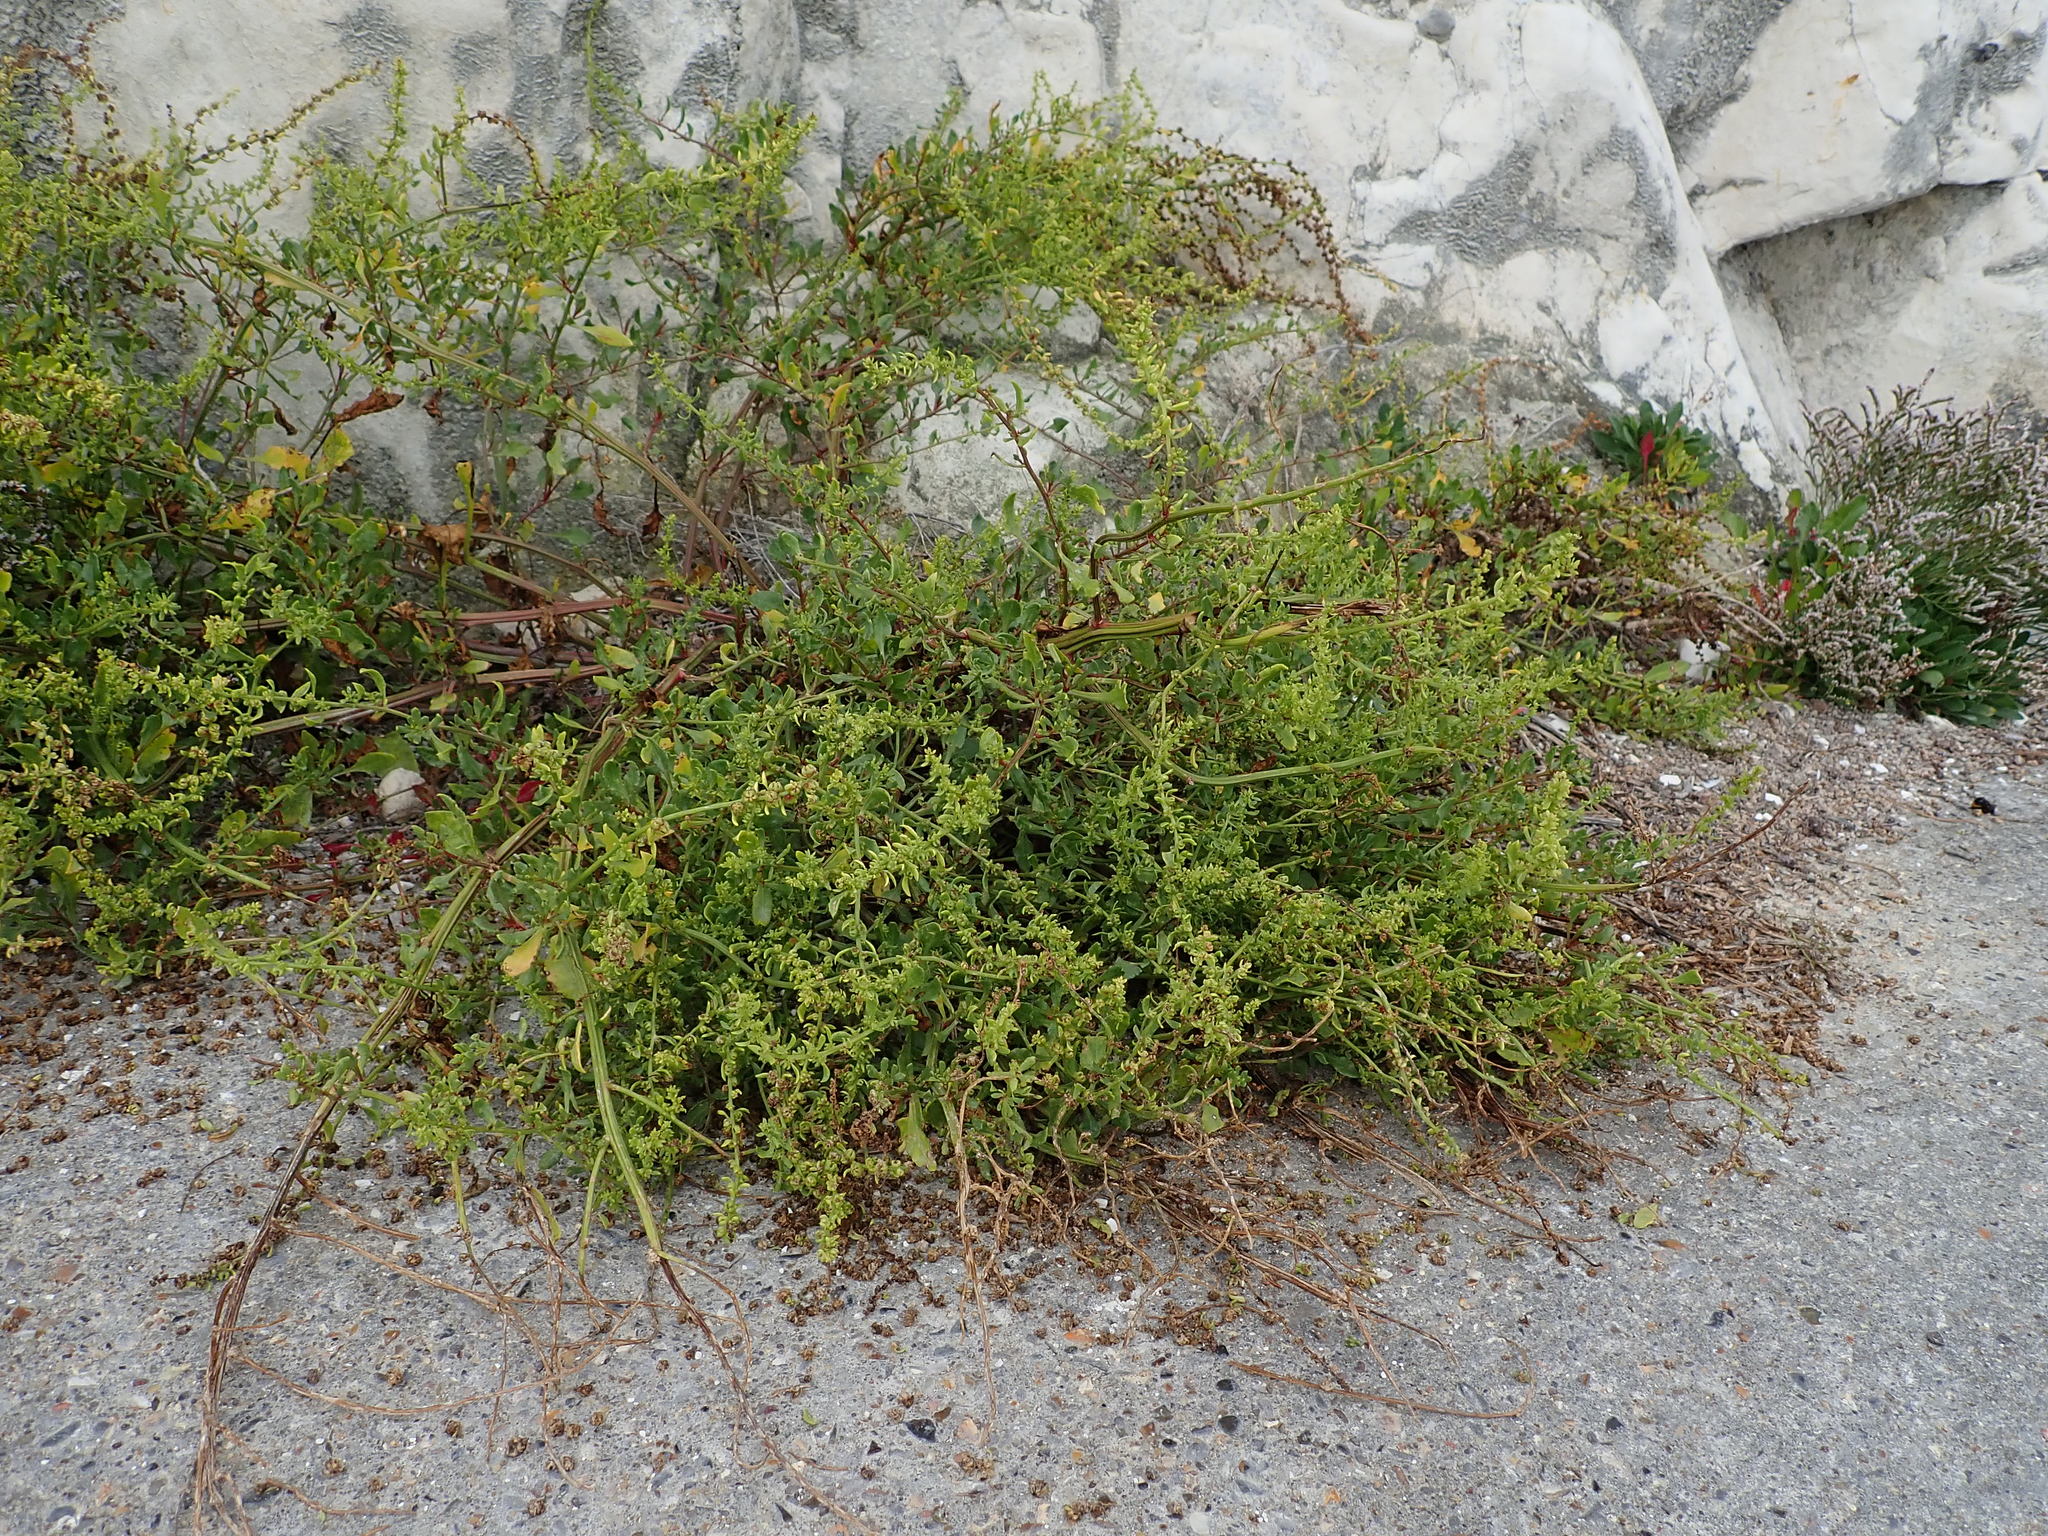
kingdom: Plantae
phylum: Tracheophyta
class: Magnoliopsida
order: Caryophyllales
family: Amaranthaceae
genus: Beta
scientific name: Beta vulgaris
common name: Beet
